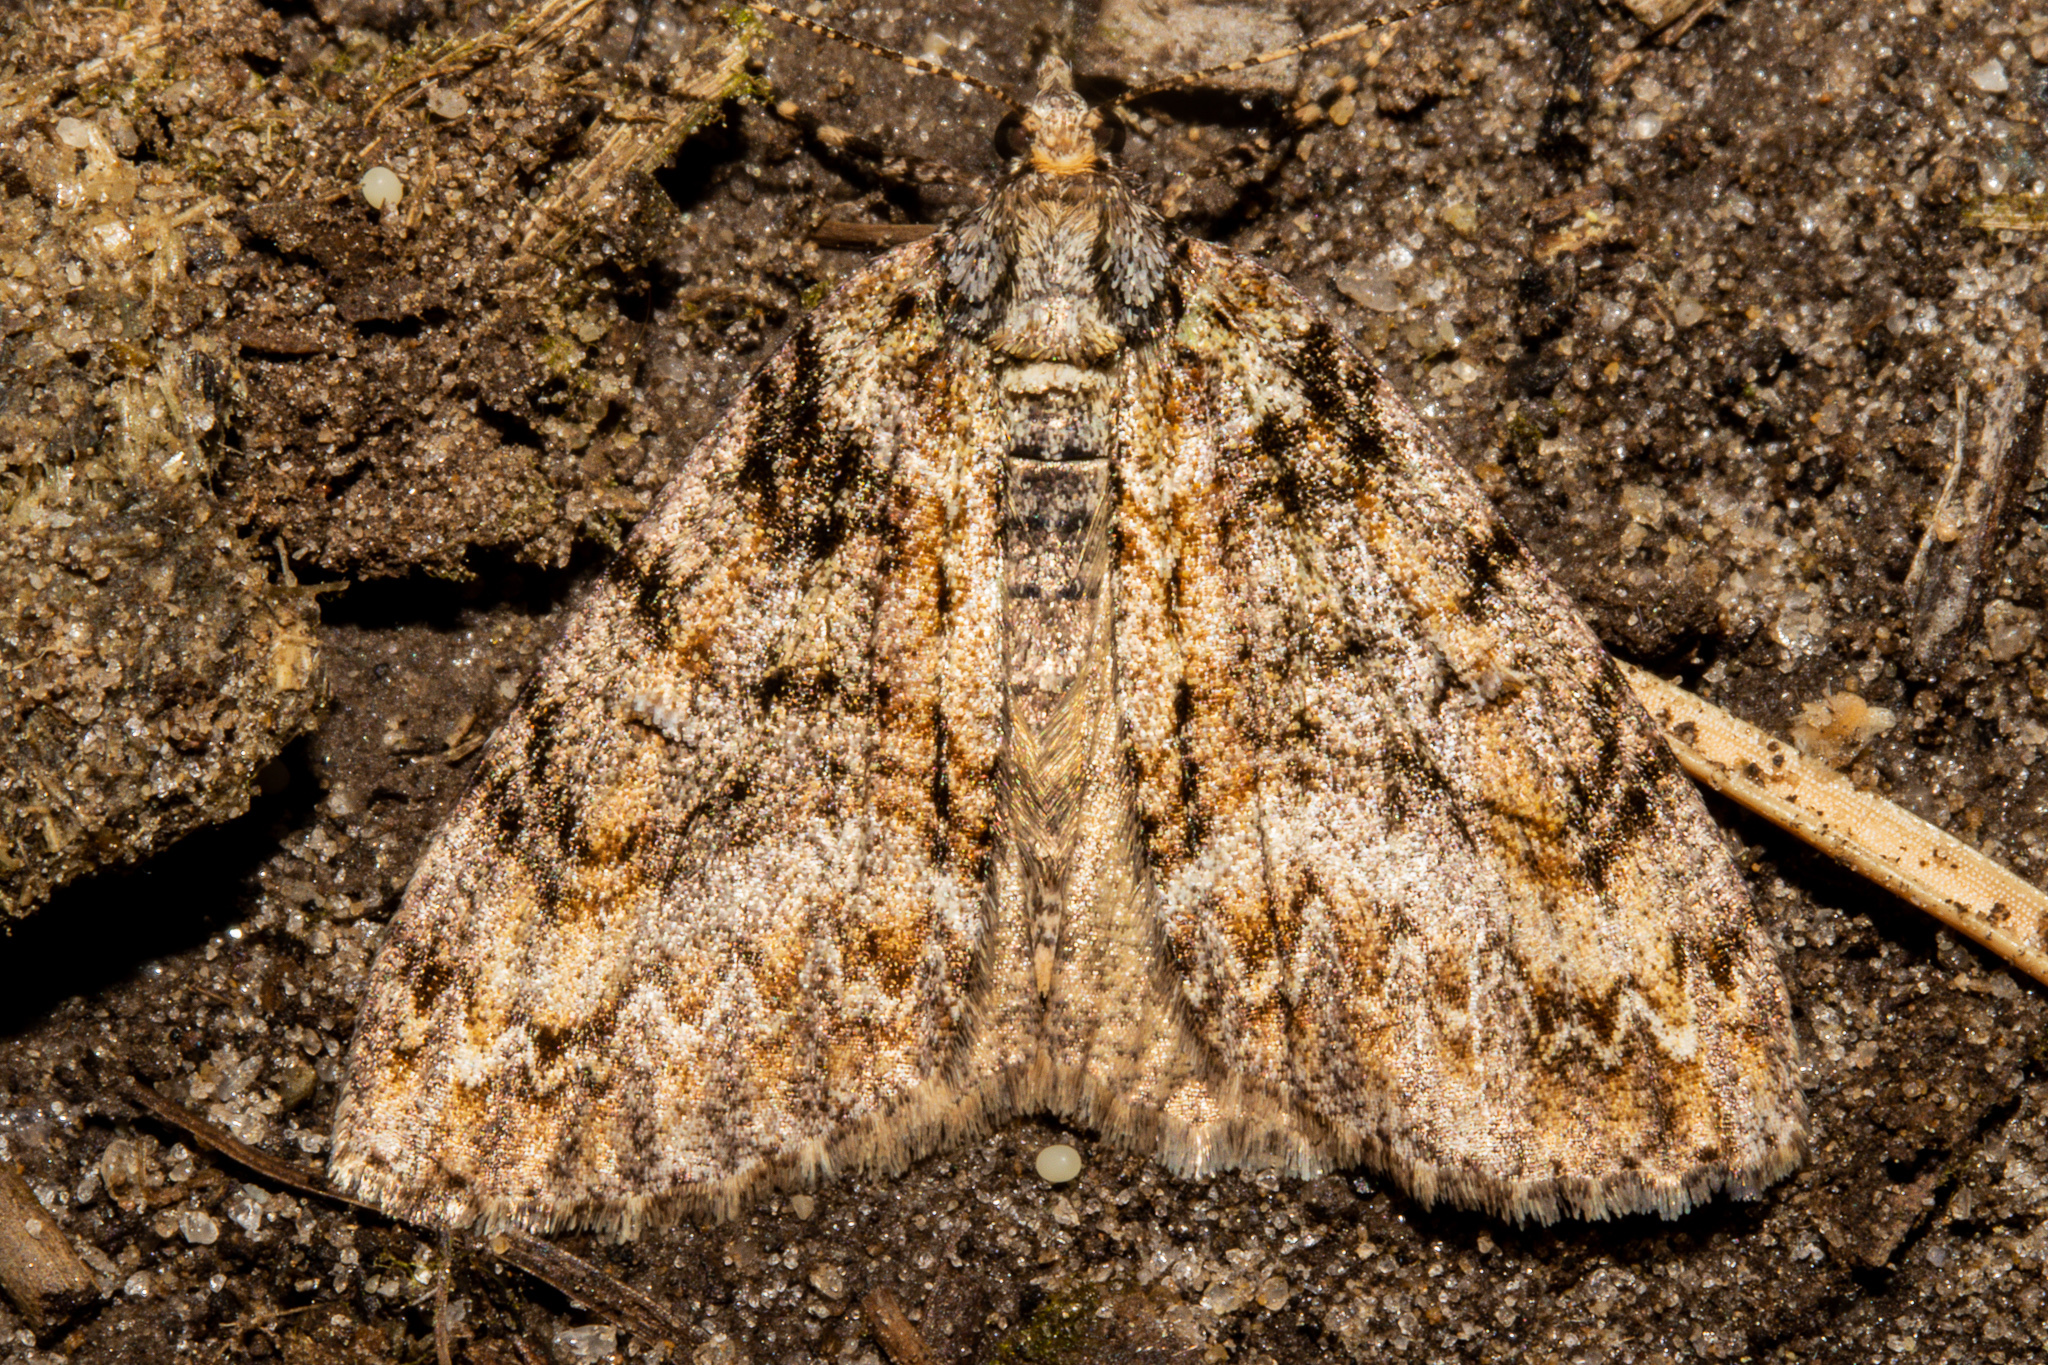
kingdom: Animalia
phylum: Arthropoda
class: Insecta
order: Lepidoptera
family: Geometridae
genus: Pseudocoremia
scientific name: Pseudocoremia suavis
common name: Common forest looper
